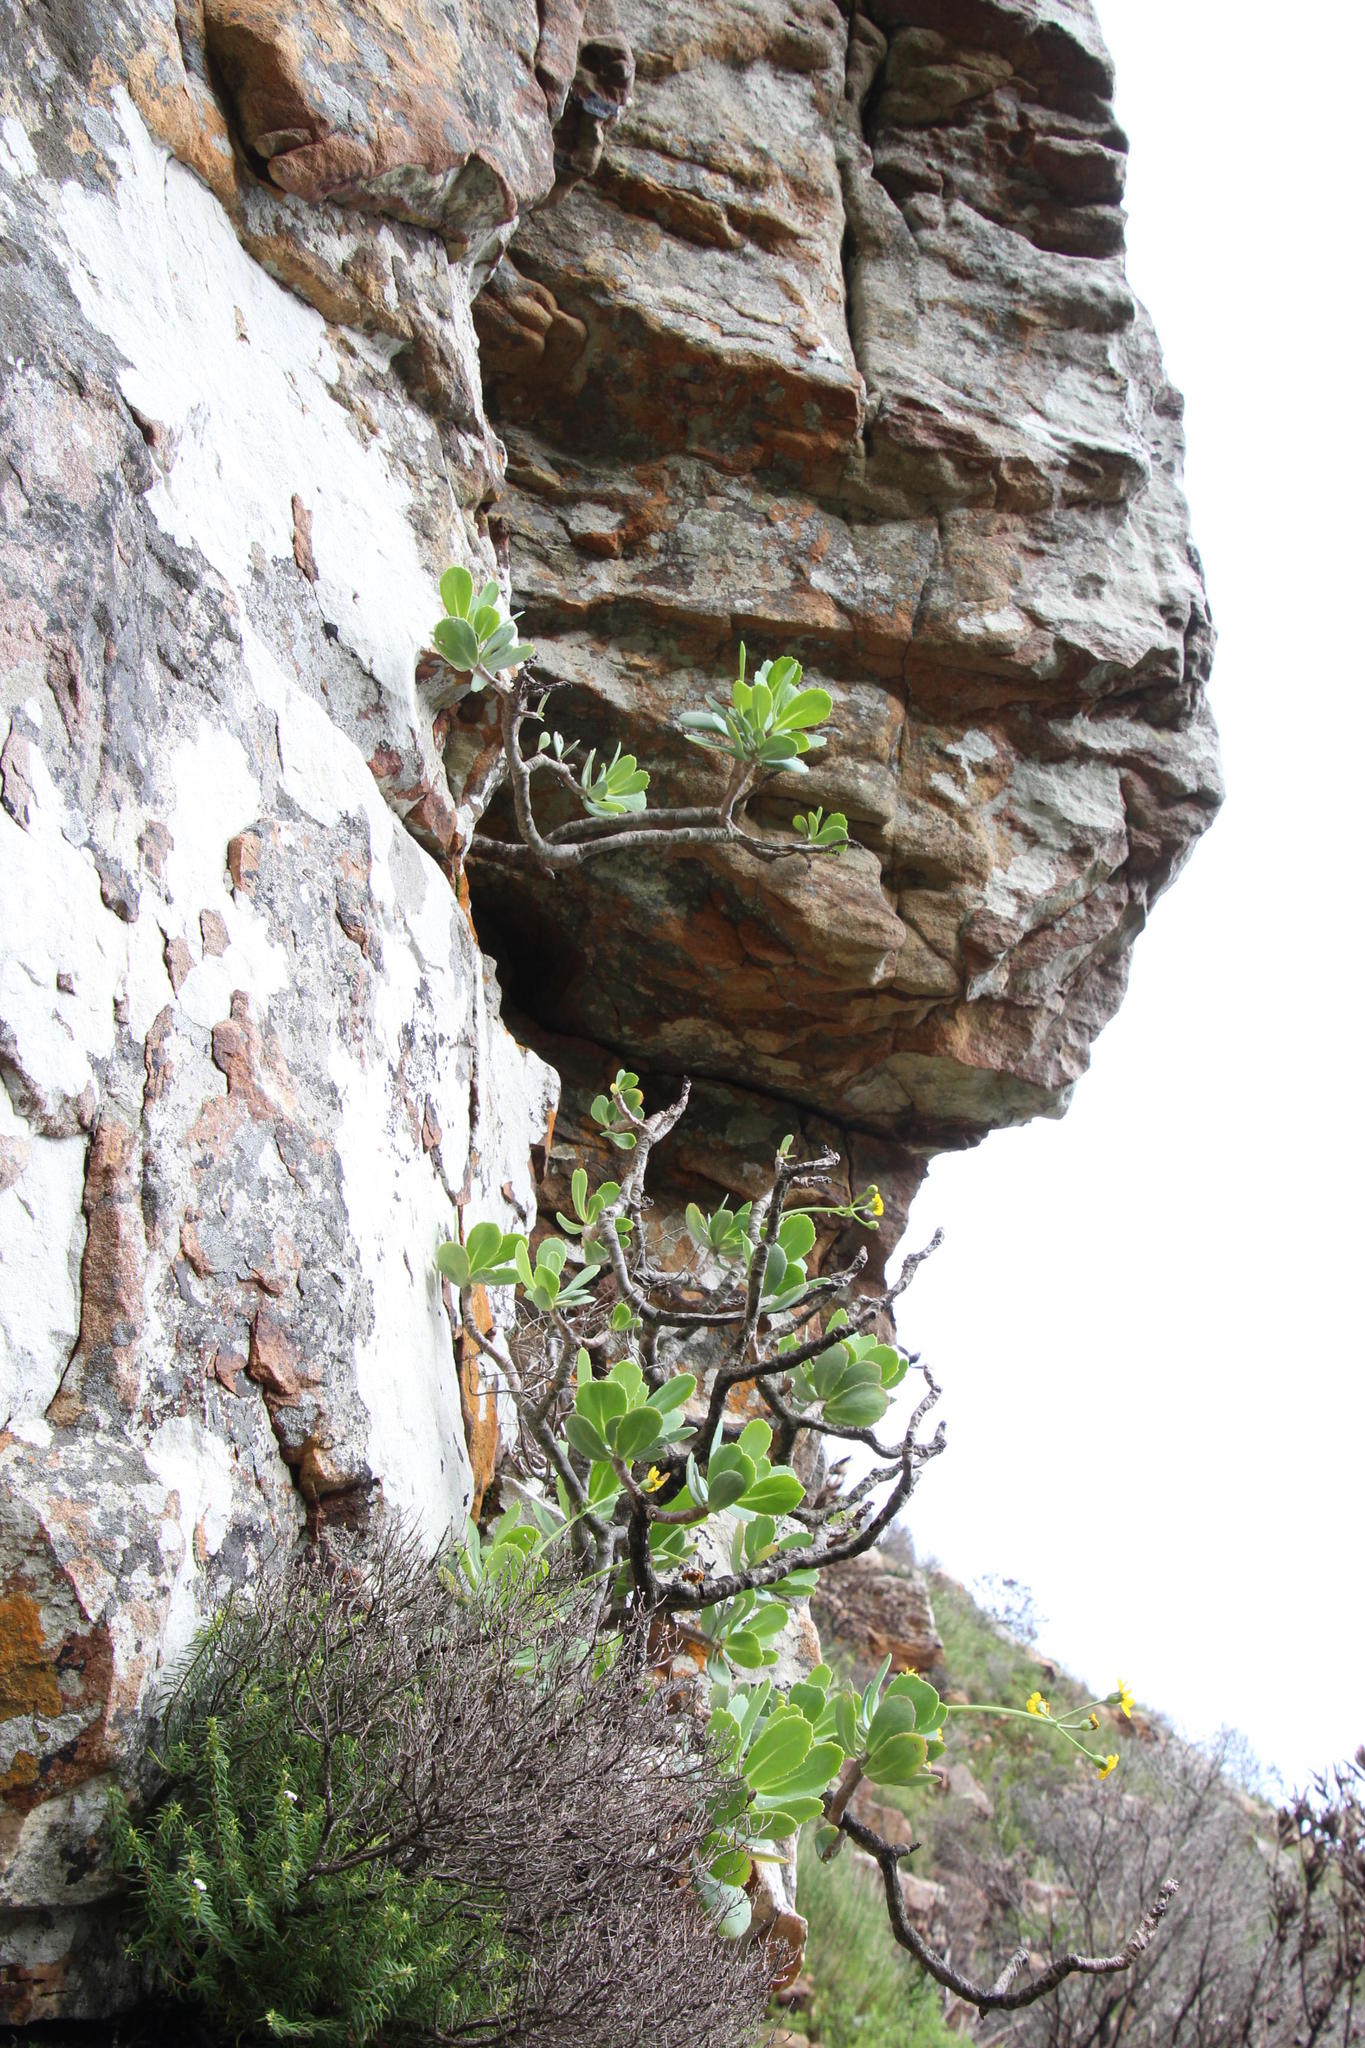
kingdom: Plantae
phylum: Tracheophyta
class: Magnoliopsida
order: Asterales
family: Asteraceae
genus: Othonna
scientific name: Othonna dentata
